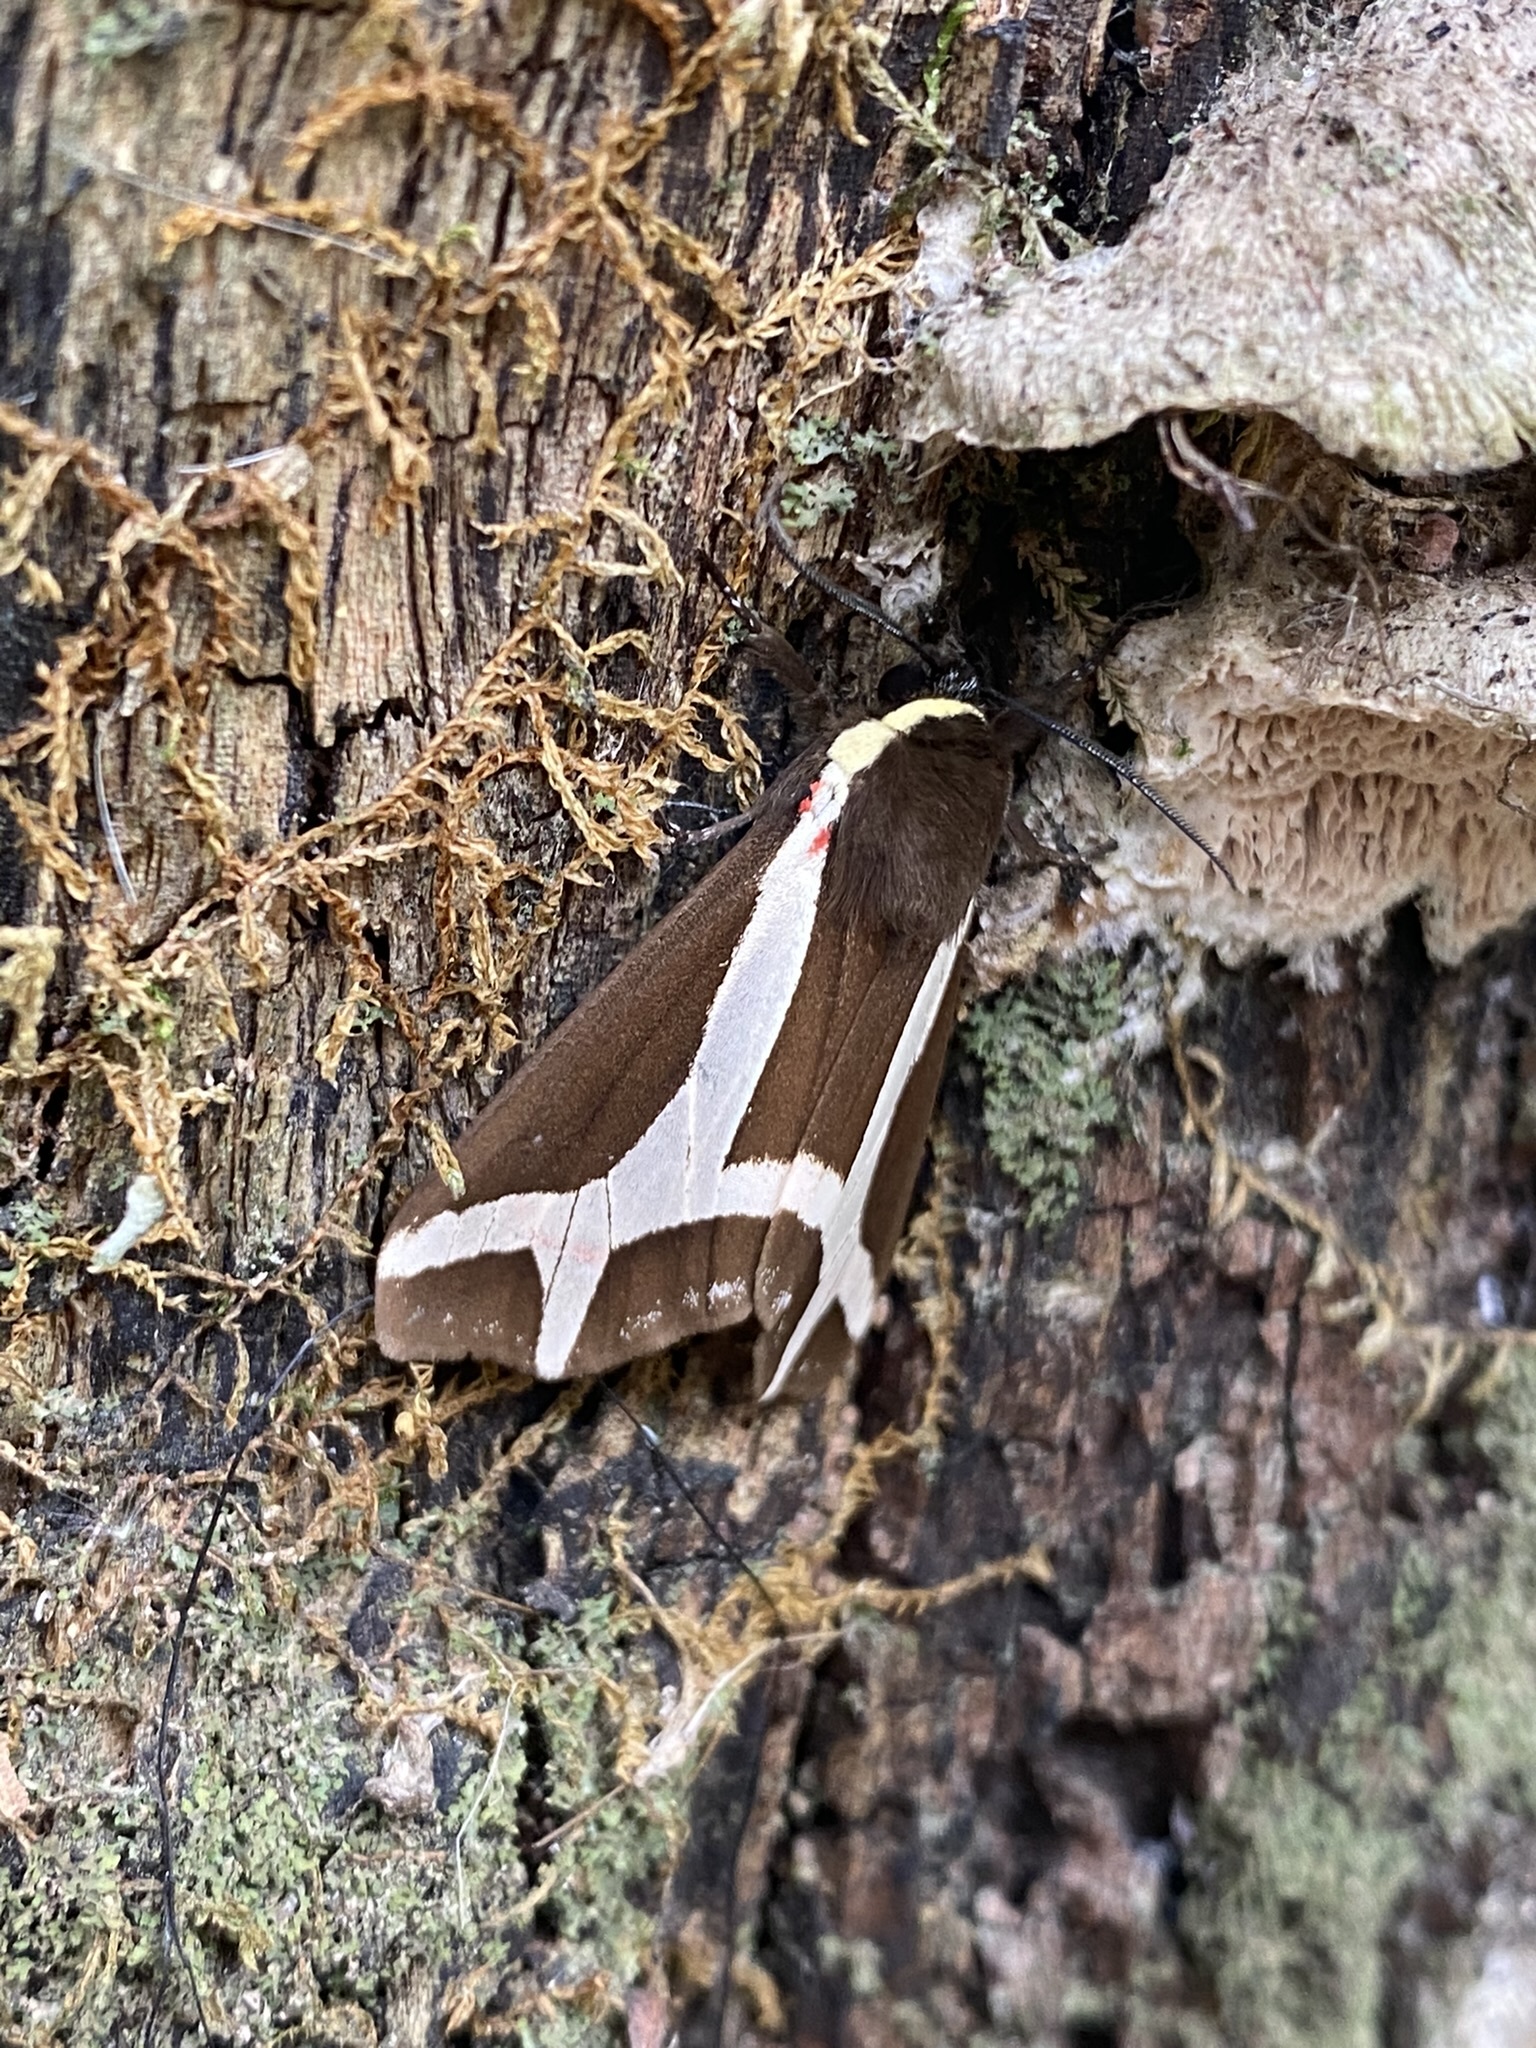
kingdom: Animalia
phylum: Arthropoda
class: Insecta
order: Lepidoptera
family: Erebidae
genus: Dysschema
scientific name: Dysschema sacrifica
